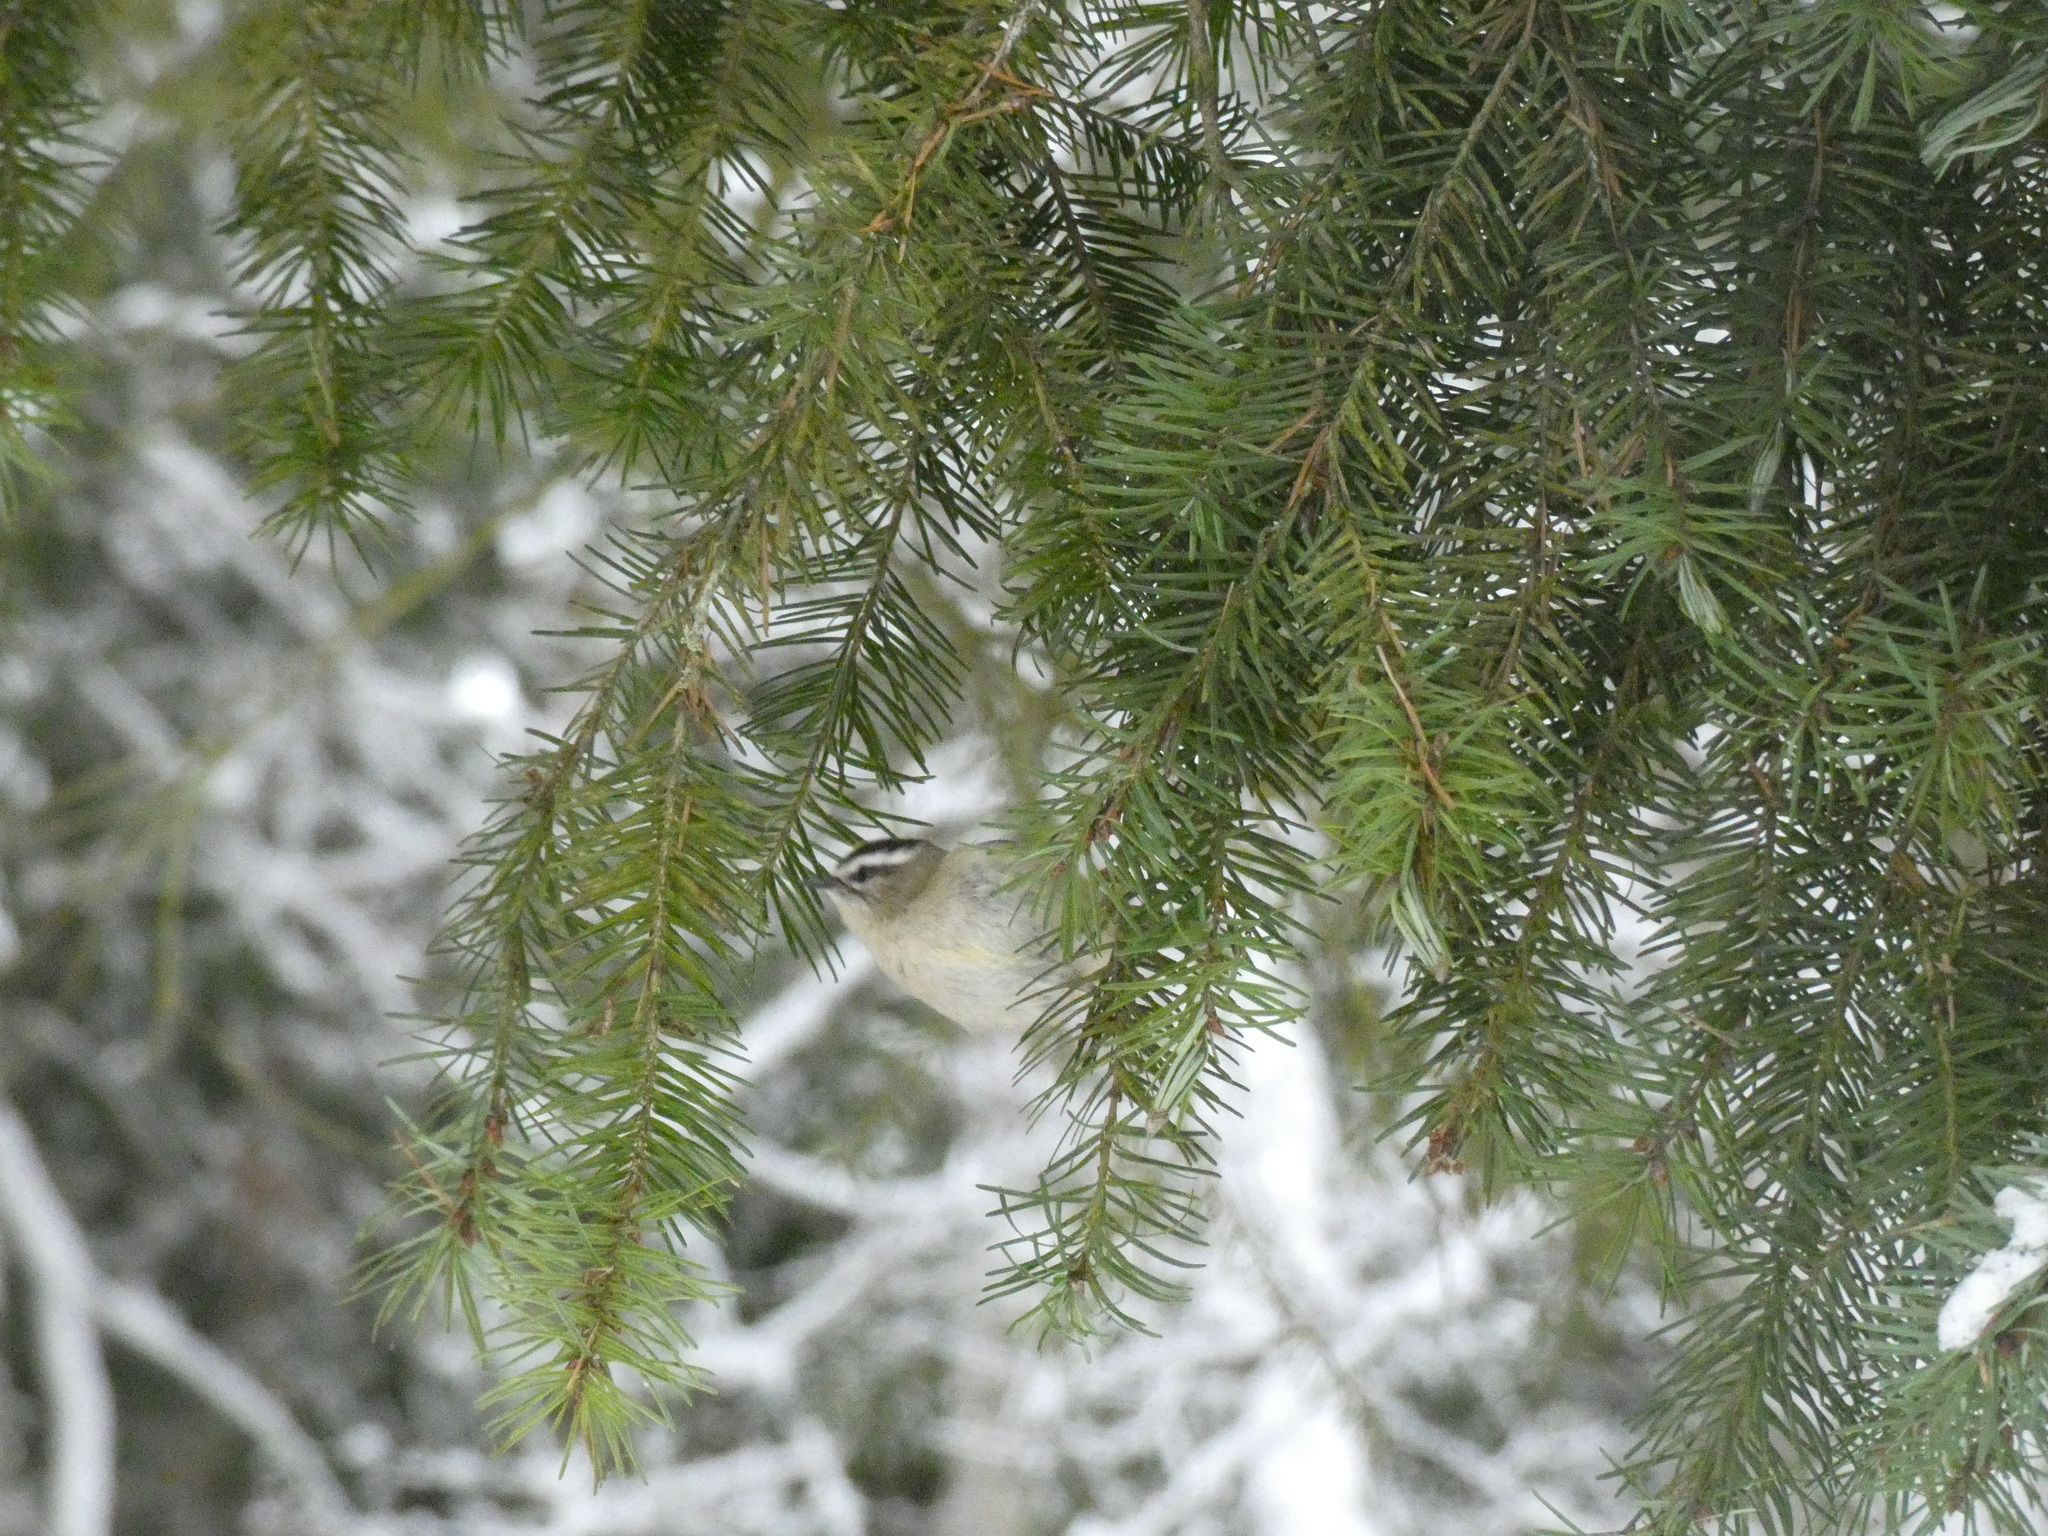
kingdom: Animalia
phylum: Chordata
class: Aves
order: Passeriformes
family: Regulidae
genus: Regulus
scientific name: Regulus satrapa
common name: Golden-crowned kinglet
